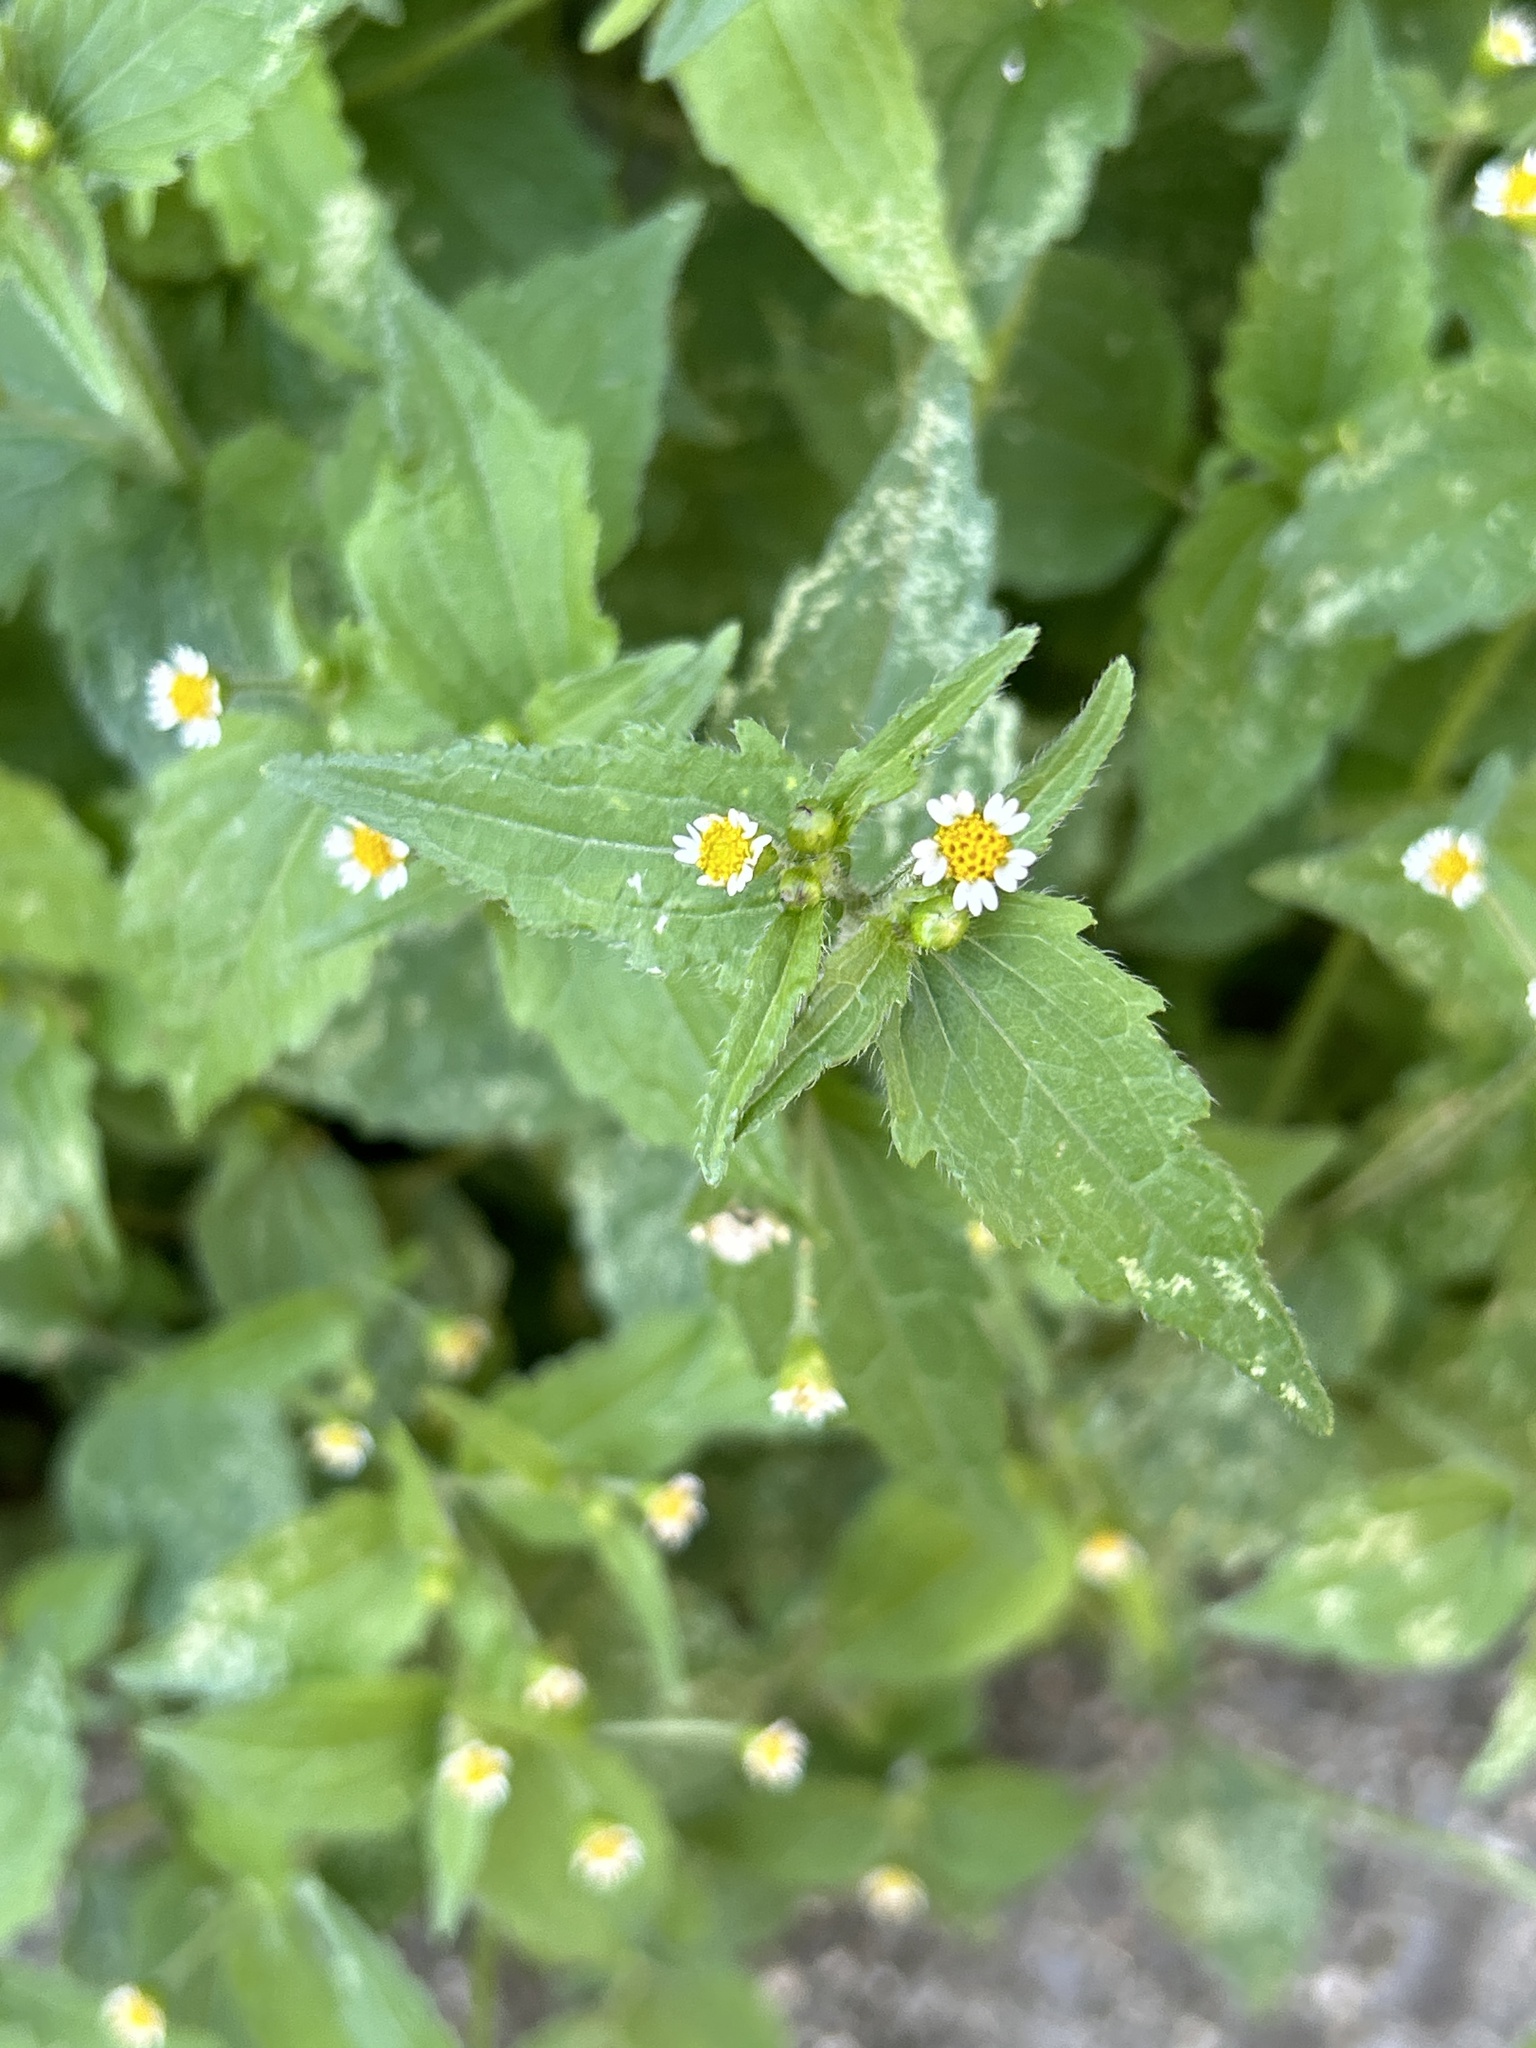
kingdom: Plantae
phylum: Tracheophyta
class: Magnoliopsida
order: Asterales
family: Asteraceae
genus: Galinsoga
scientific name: Galinsoga quadriradiata
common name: Shaggy soldier
